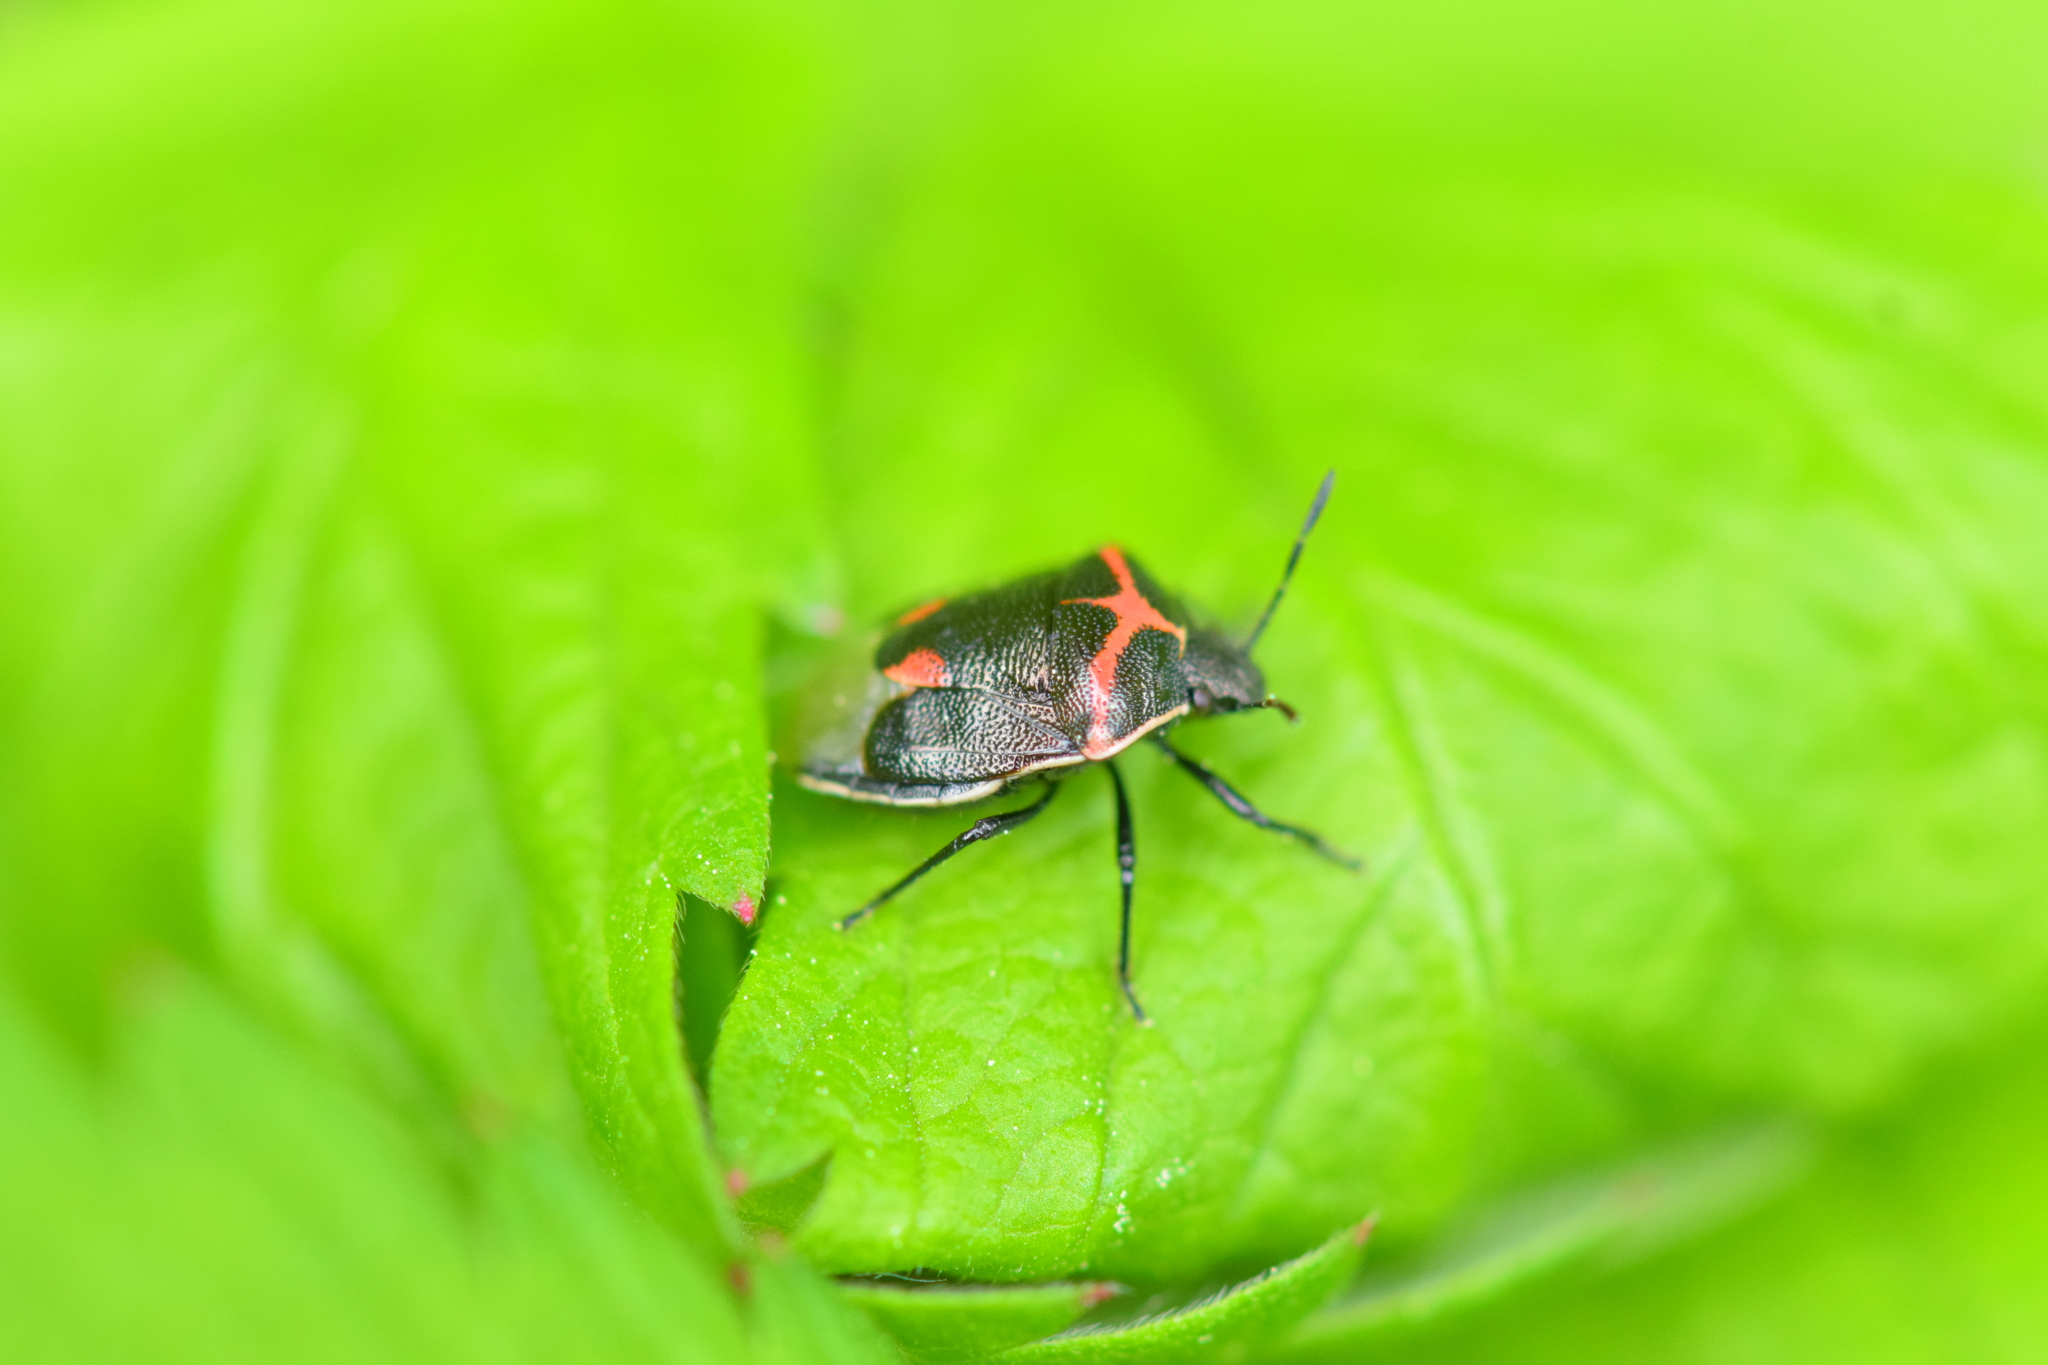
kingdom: Animalia
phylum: Arthropoda
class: Insecta
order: Hemiptera
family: Pentatomidae
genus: Cosmopepla
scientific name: Cosmopepla lintneriana
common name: Twice-stabbed stink bug
